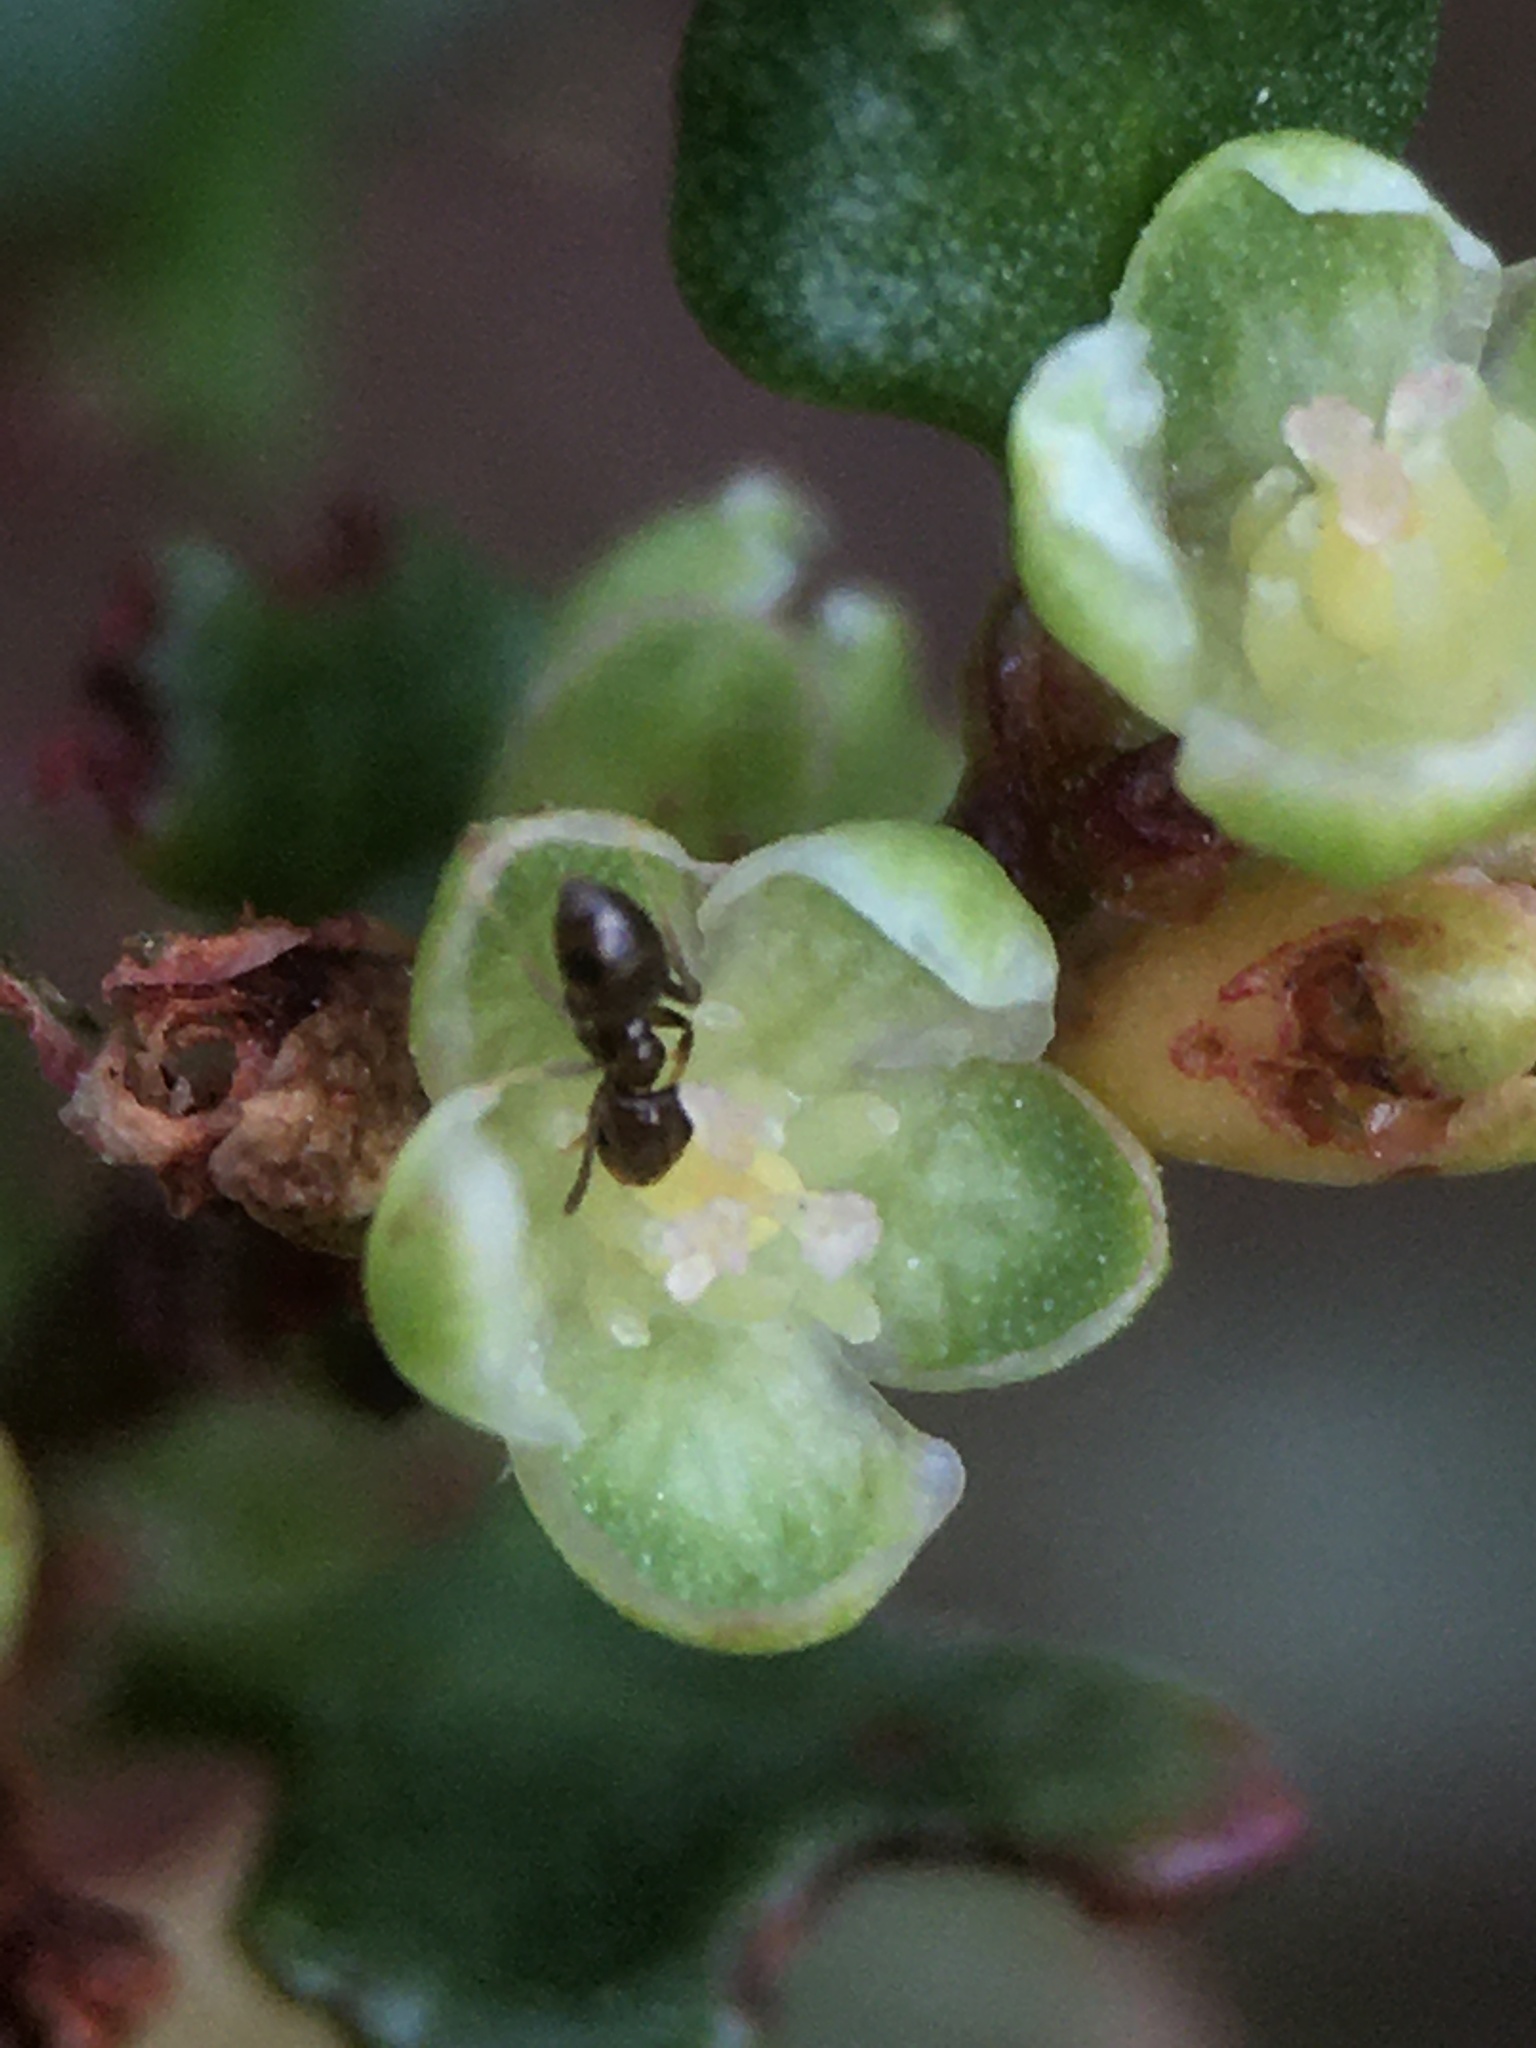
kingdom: Plantae
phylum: Tracheophyta
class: Magnoliopsida
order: Caryophyllales
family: Polygonaceae
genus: Muehlenbeckia
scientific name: Muehlenbeckia hastulata
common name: Wirevine
